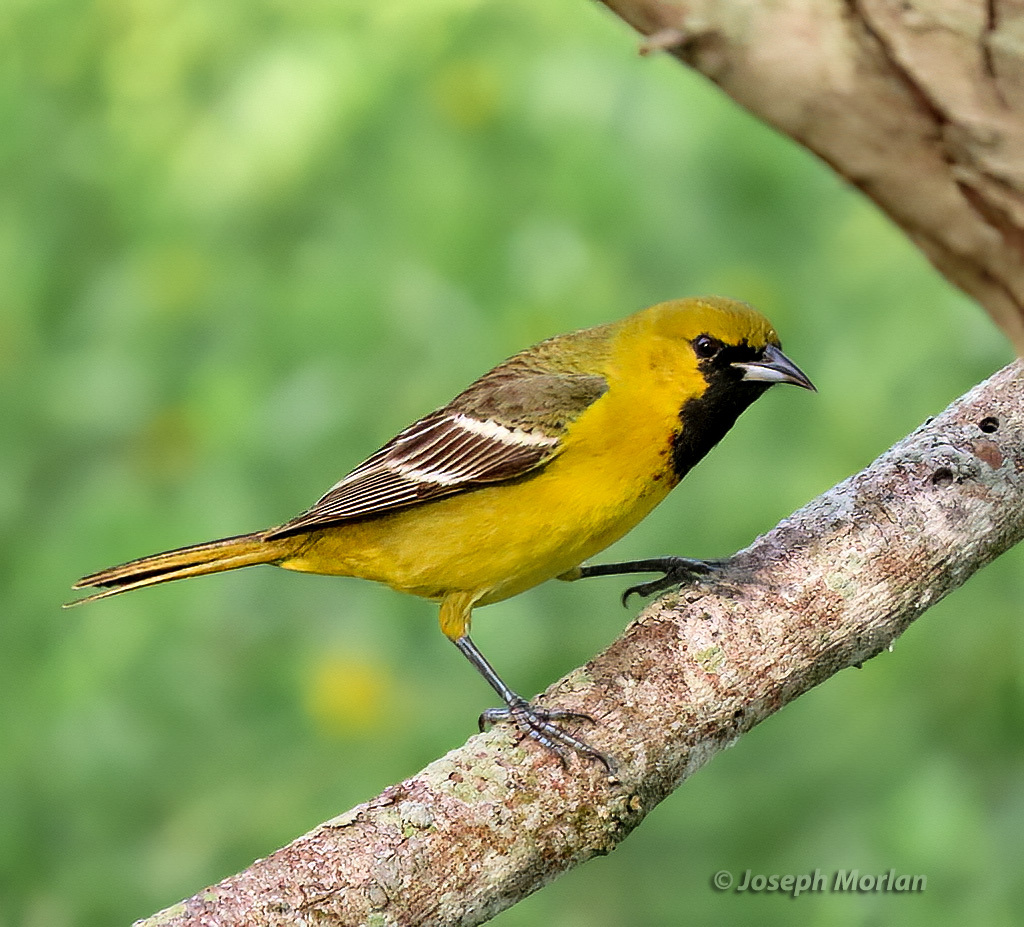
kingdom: Animalia
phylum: Chordata
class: Aves
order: Passeriformes
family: Icteridae
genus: Icterus
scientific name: Icterus spurius
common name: Orchard oriole
